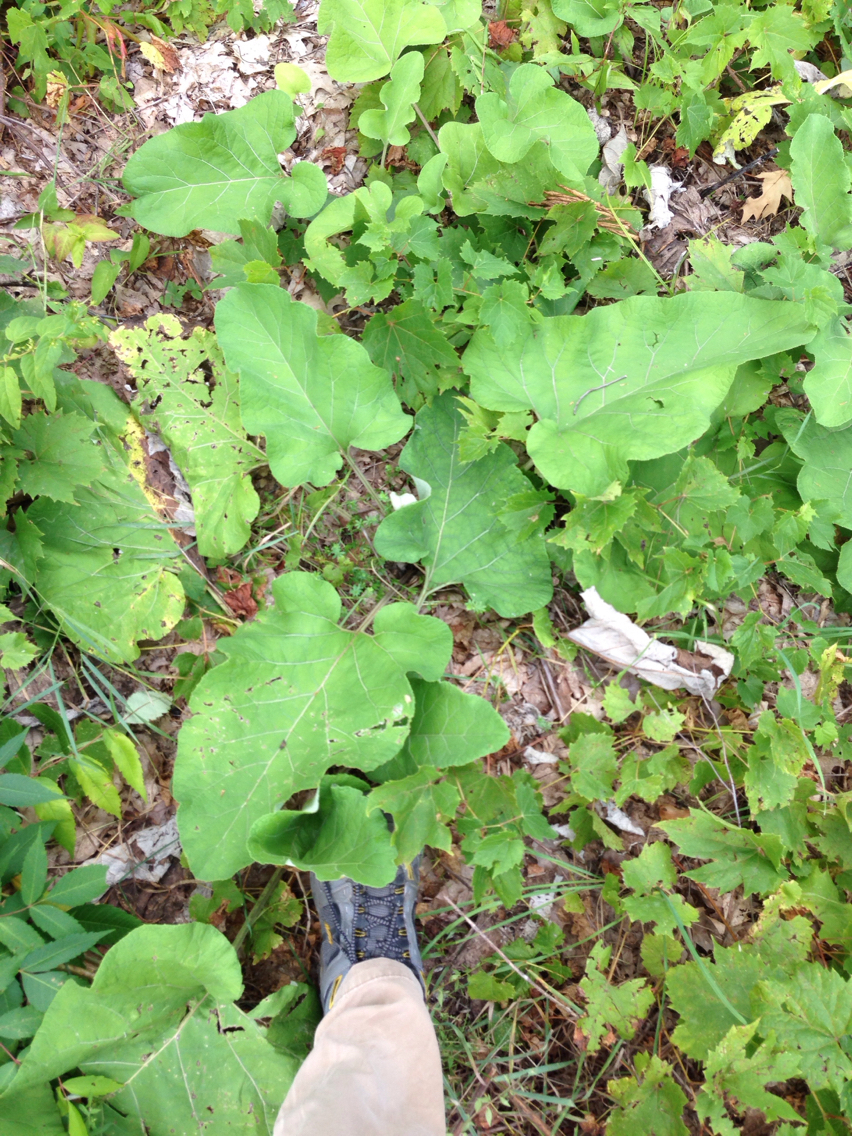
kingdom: Plantae
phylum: Tracheophyta
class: Magnoliopsida
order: Asterales
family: Asteraceae
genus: Arctium
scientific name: Arctium lappa
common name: Greater burdock
